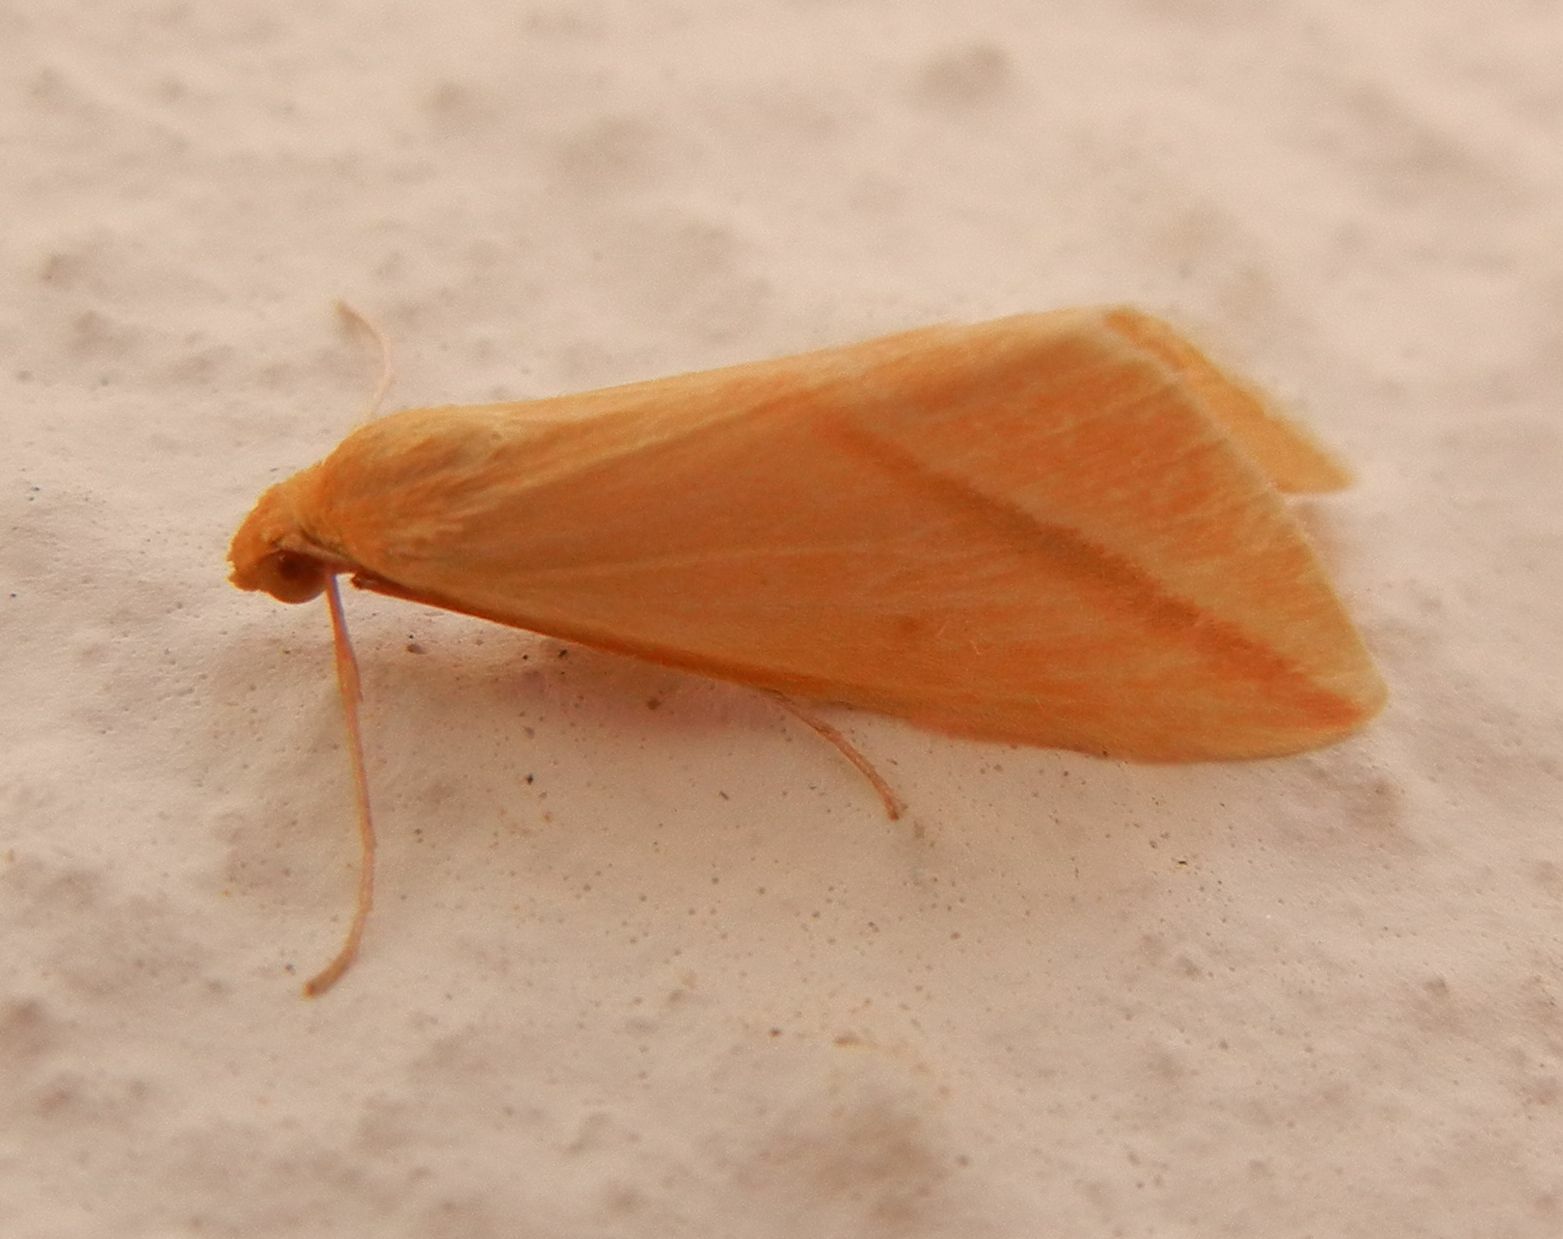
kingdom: Animalia
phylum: Arthropoda
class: Insecta
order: Lepidoptera
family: Geometridae
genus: Rhodometra
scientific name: Rhodometra sacraria
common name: Vestal
